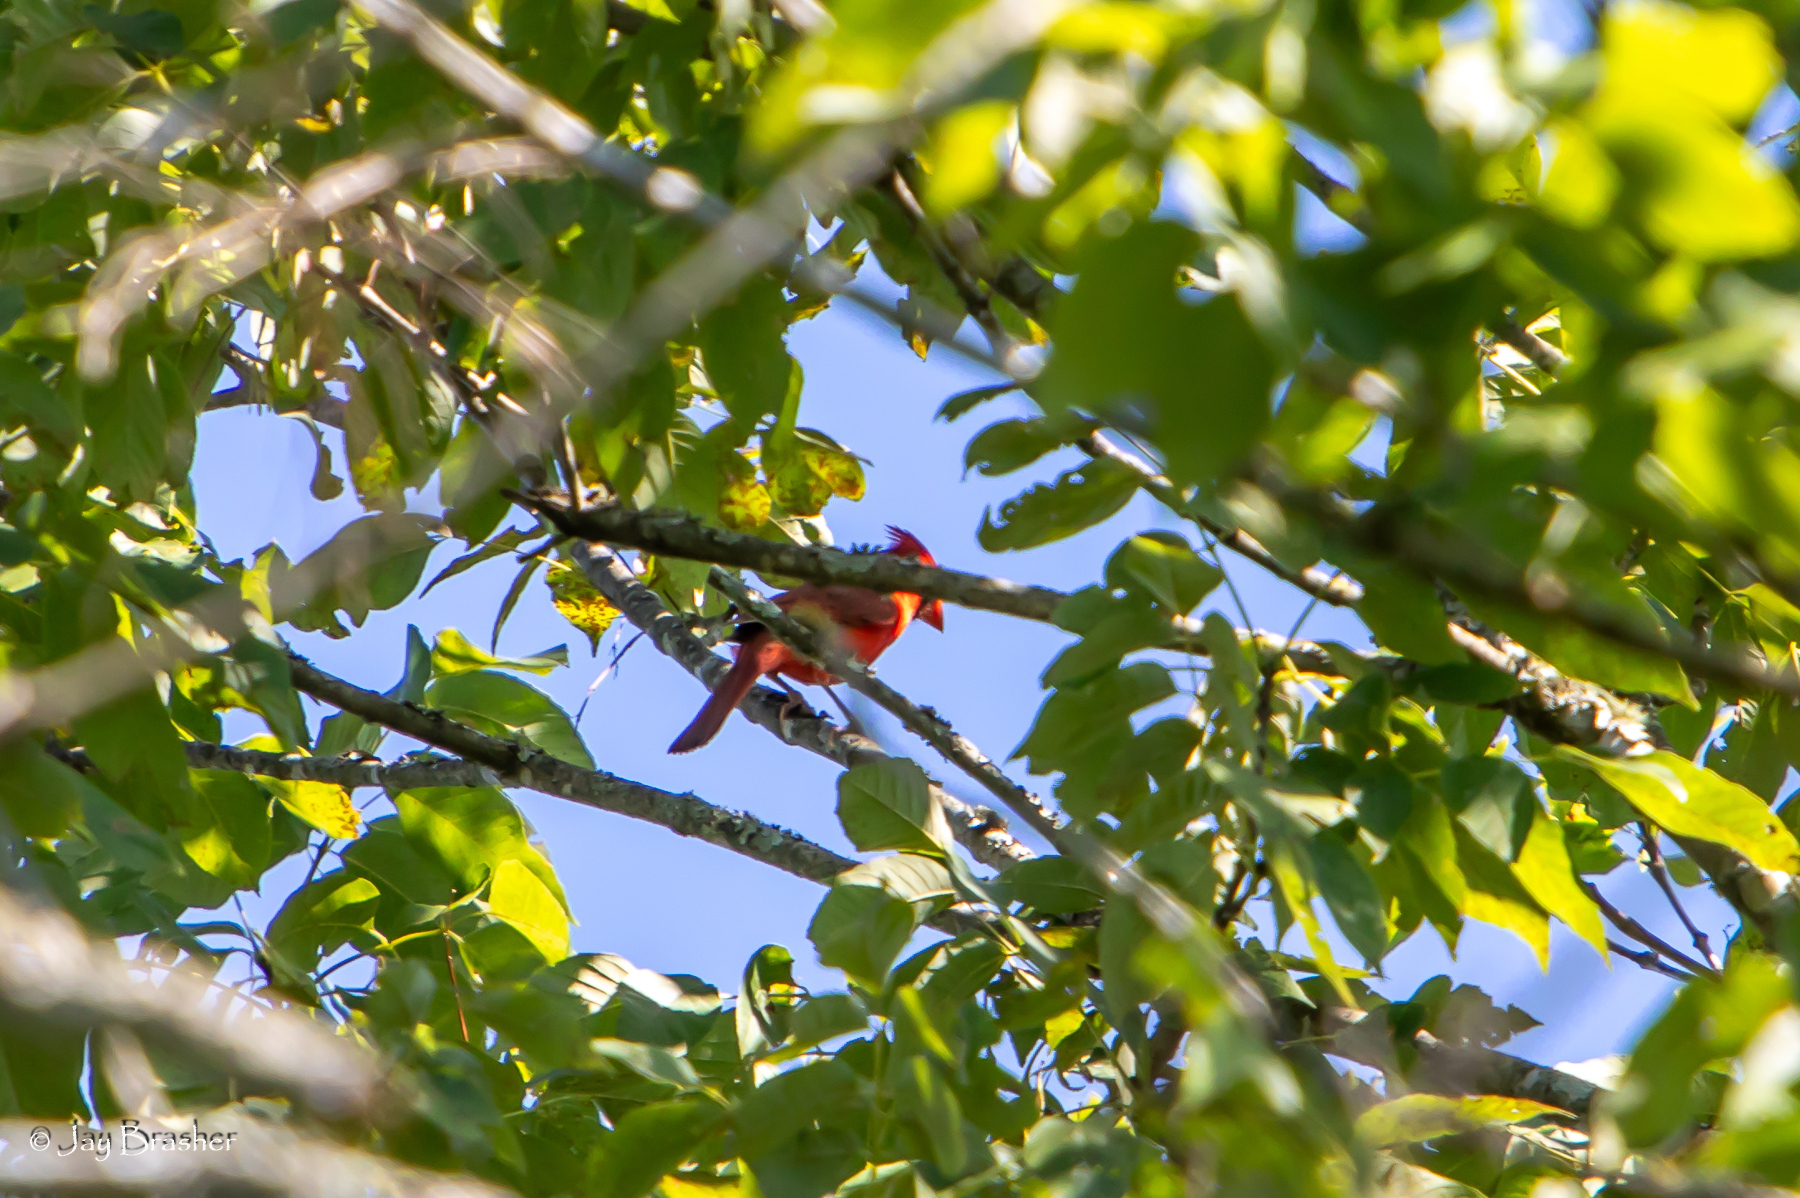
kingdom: Animalia
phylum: Chordata
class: Aves
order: Passeriformes
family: Cardinalidae
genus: Cardinalis
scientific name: Cardinalis cardinalis
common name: Northern cardinal
